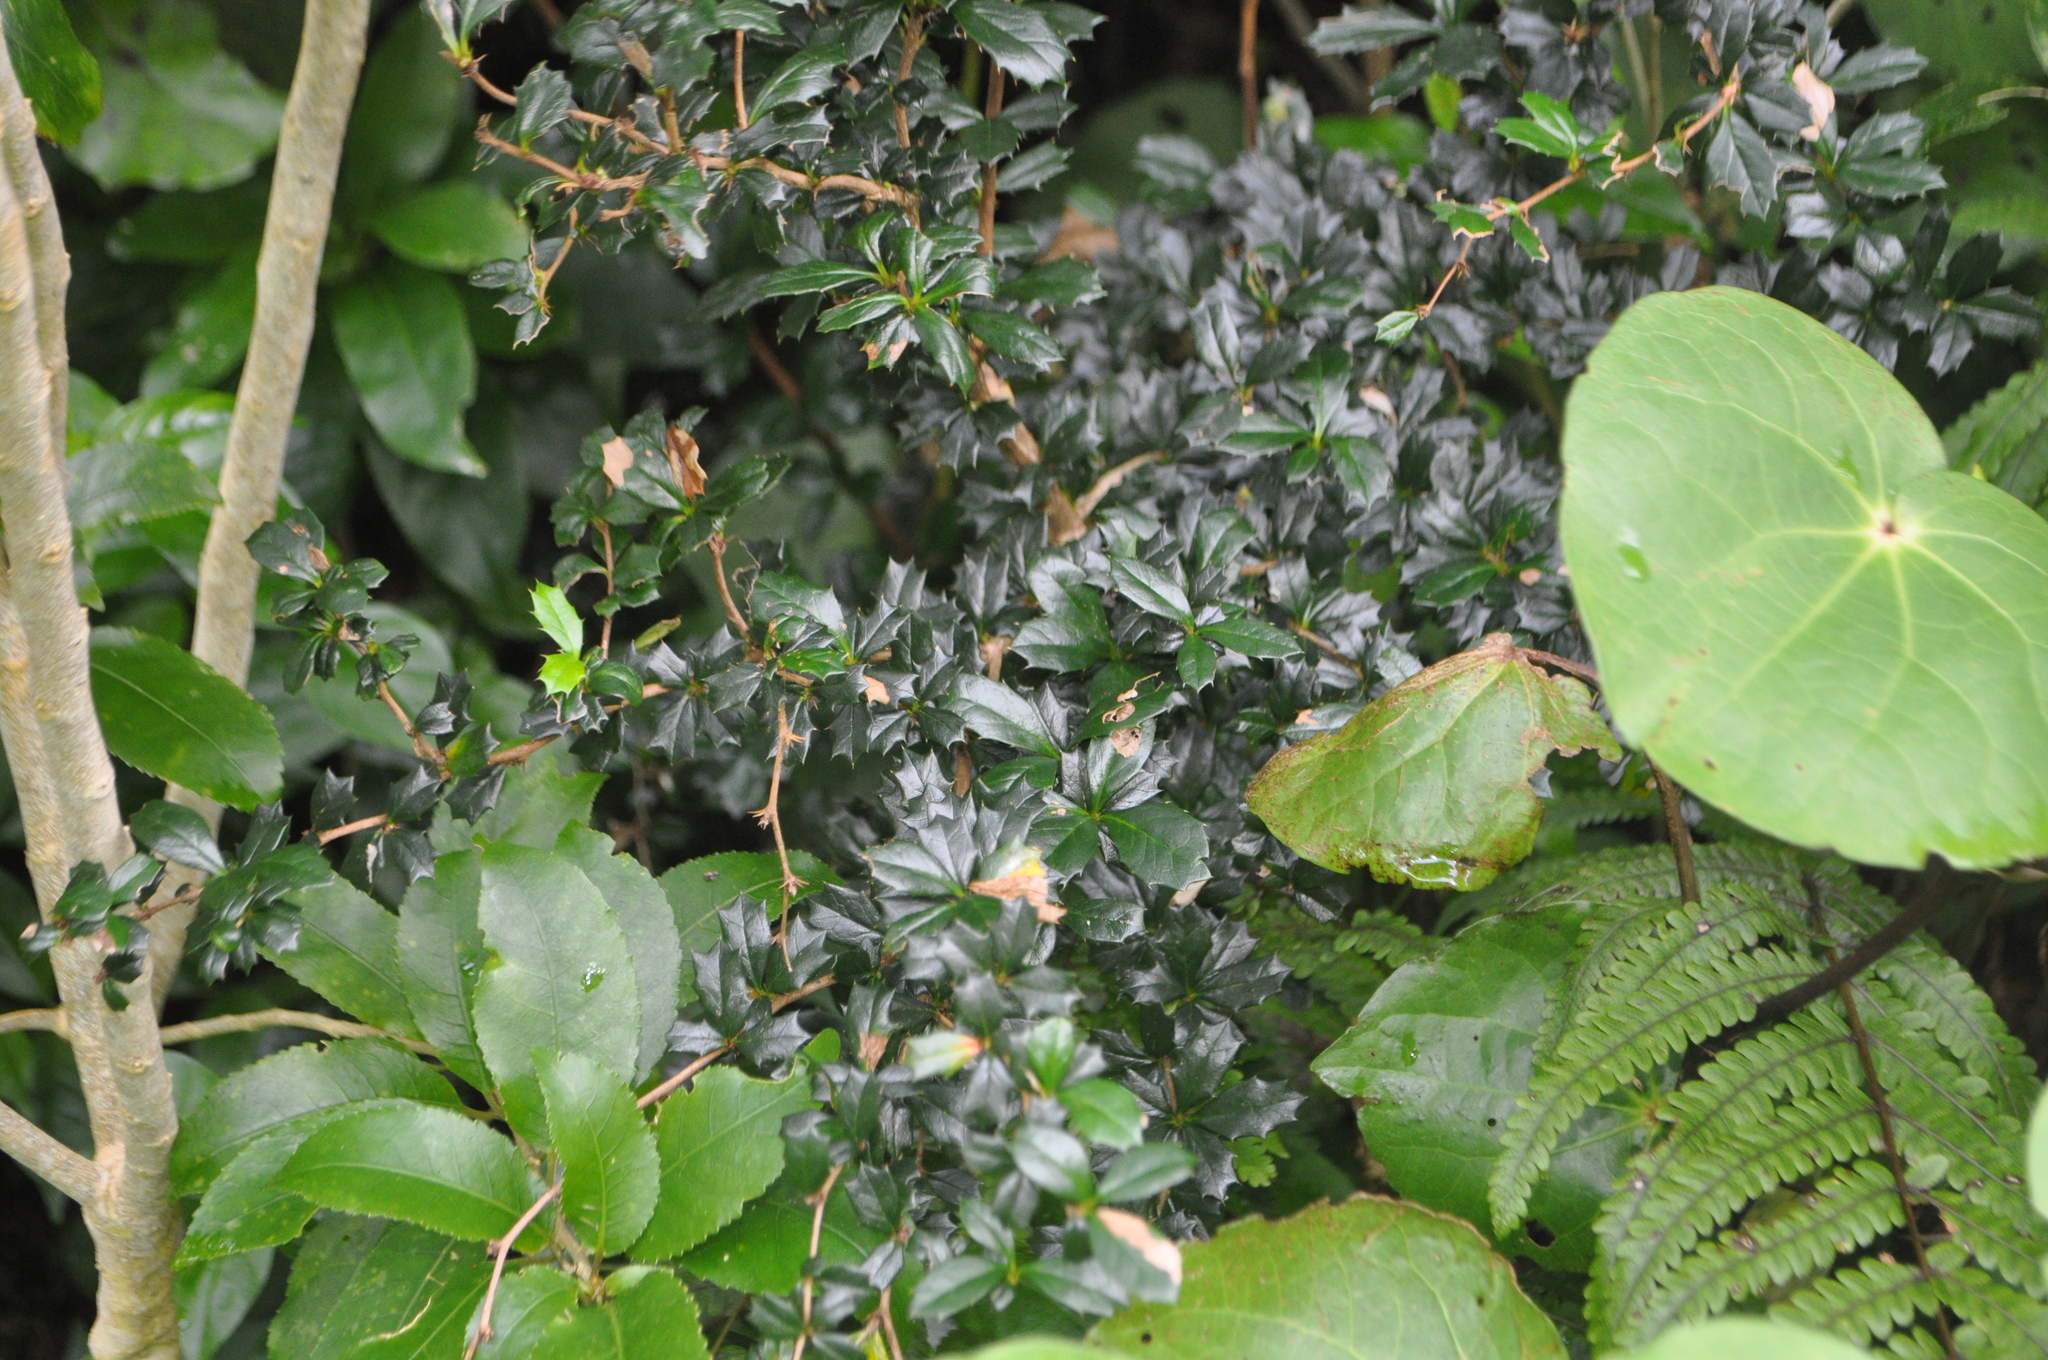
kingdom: Plantae
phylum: Tracheophyta
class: Magnoliopsida
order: Ranunculales
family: Berberidaceae
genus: Berberis
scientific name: Berberis darwinii
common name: Darwin's barberry
